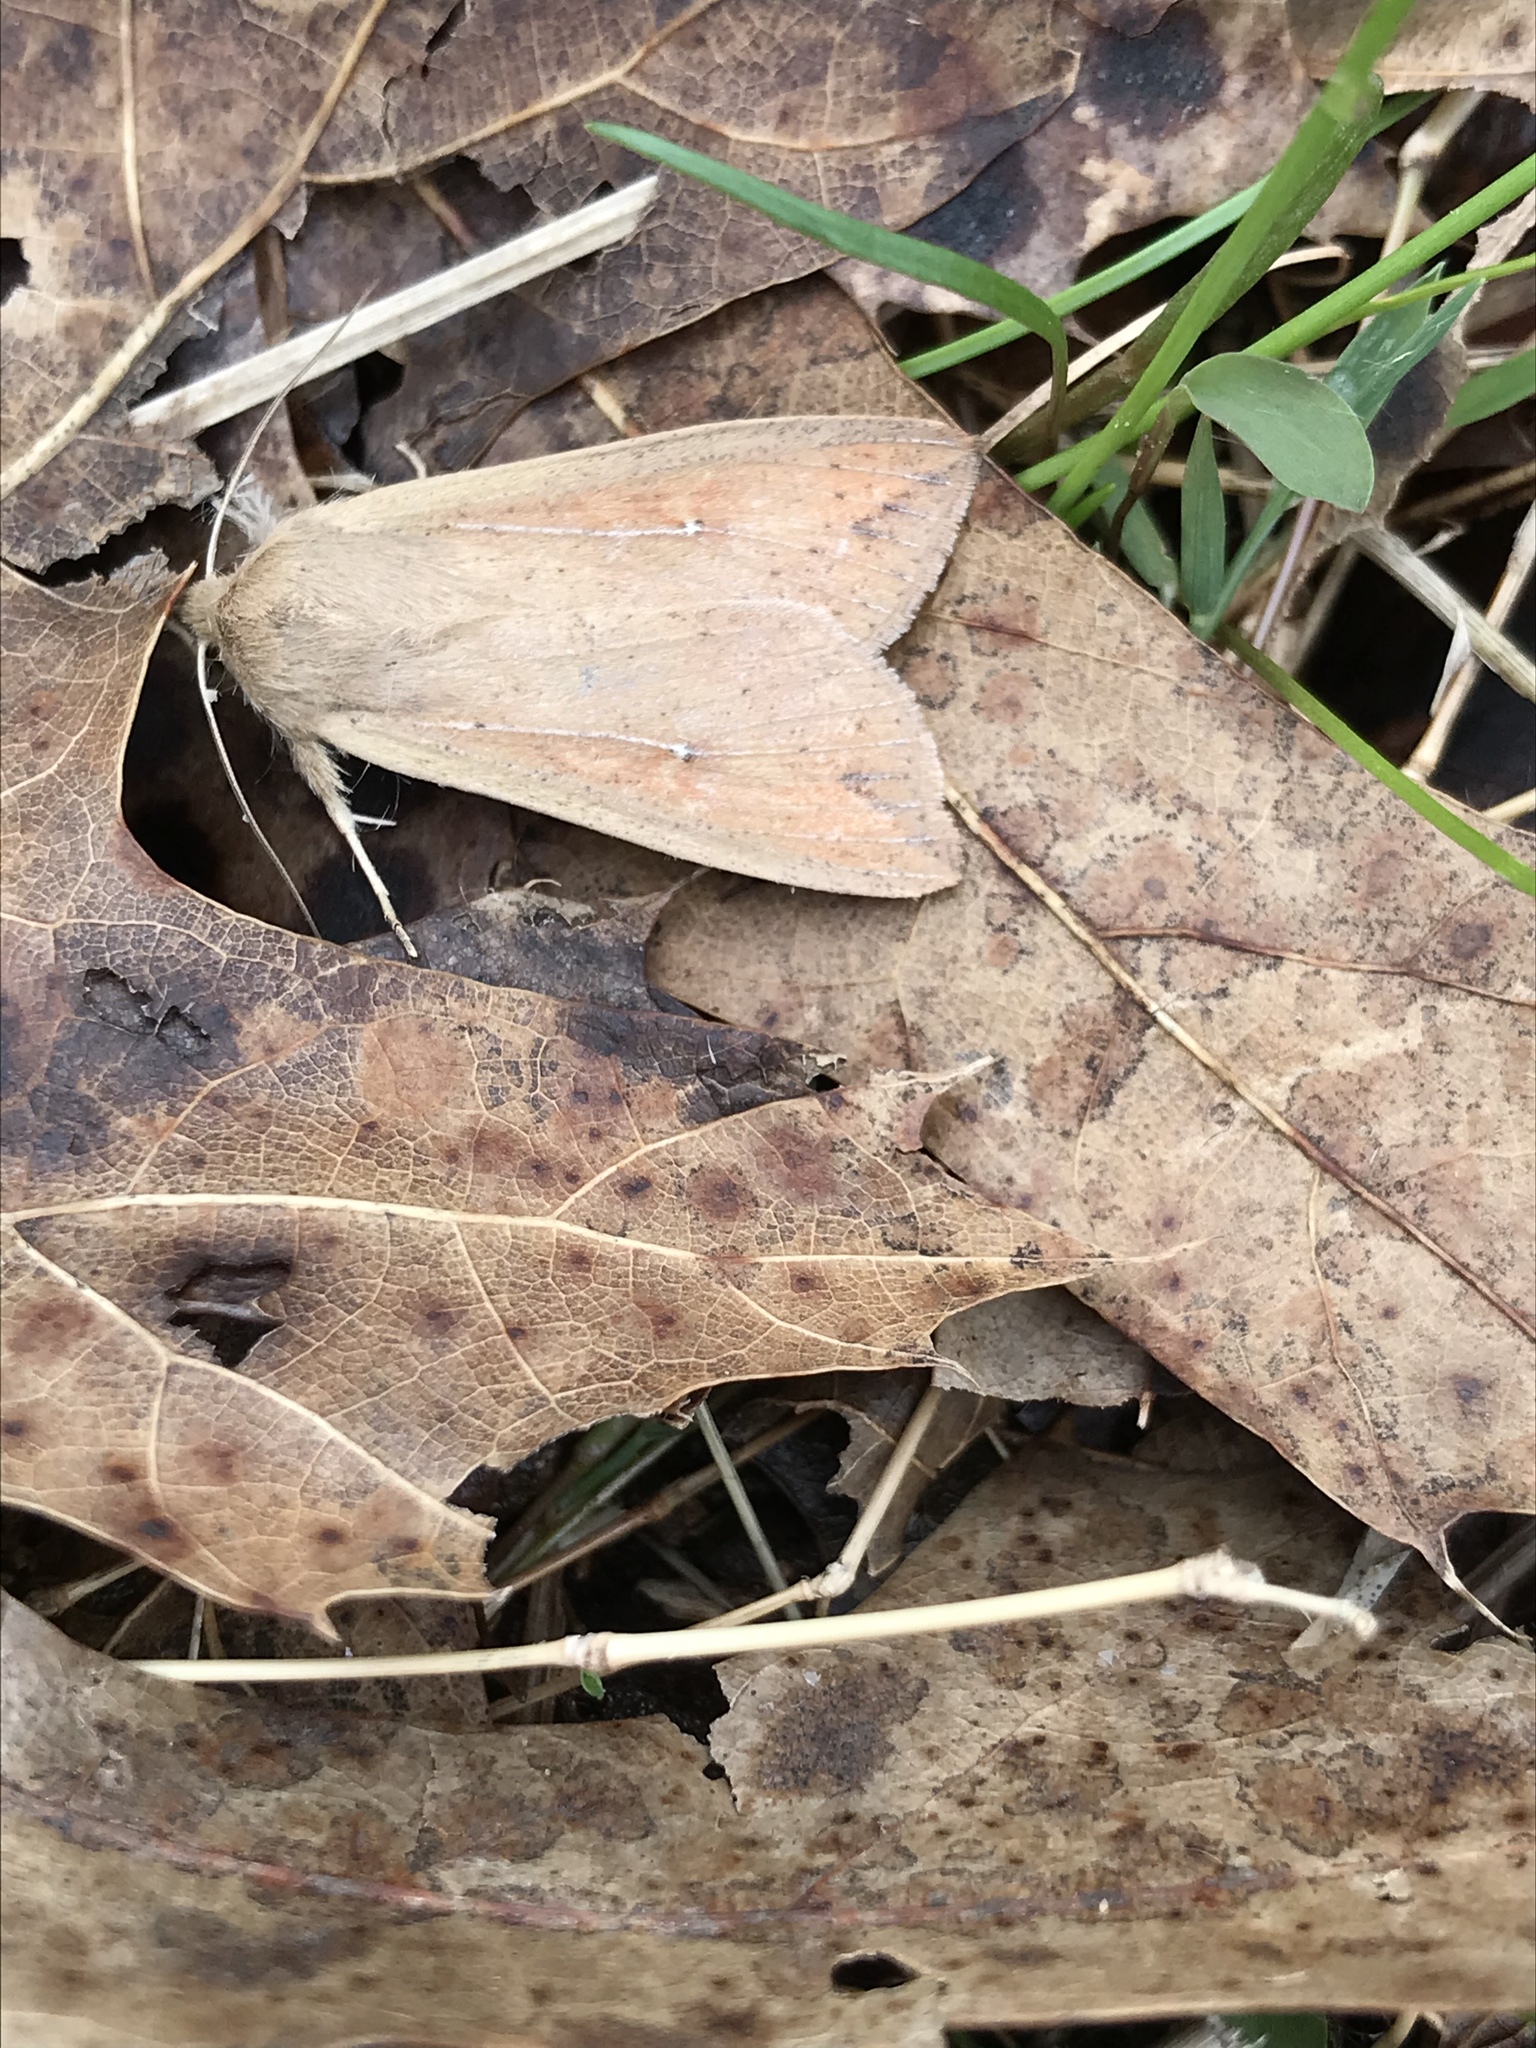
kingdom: Animalia
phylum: Arthropoda
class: Insecta
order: Lepidoptera
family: Noctuidae
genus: Mythimna
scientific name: Mythimna unipuncta
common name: White-speck
